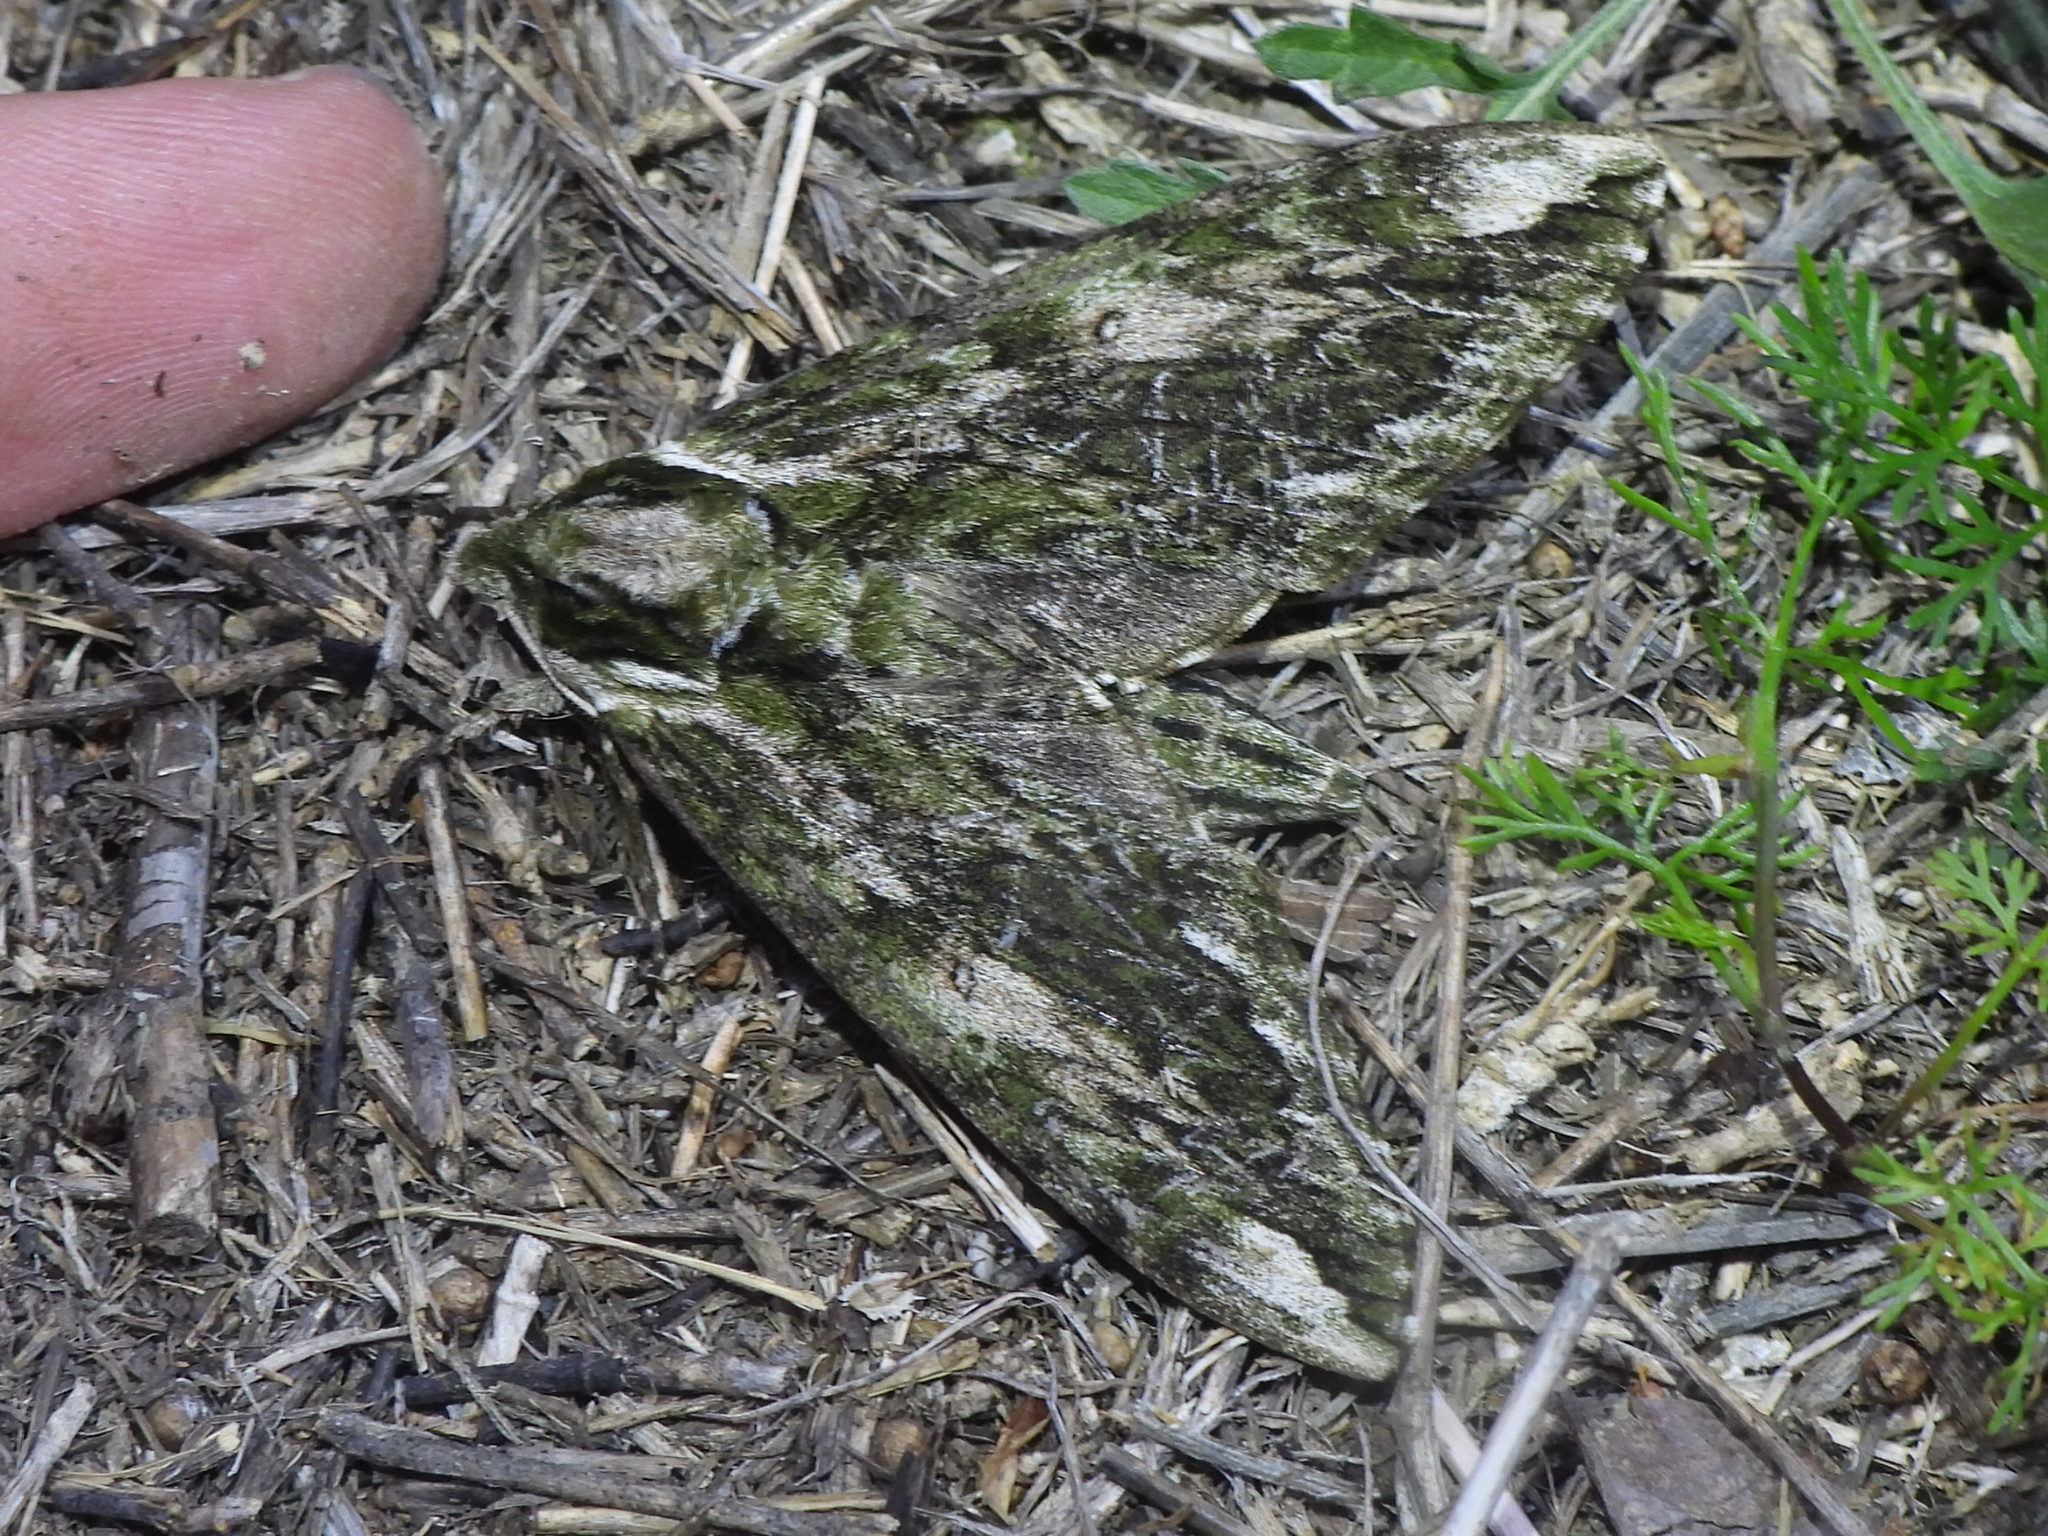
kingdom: Animalia
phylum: Arthropoda
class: Insecta
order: Lepidoptera
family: Sphingidae
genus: Ceratomia
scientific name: Ceratomia hageni
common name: Hagen's sphinx
